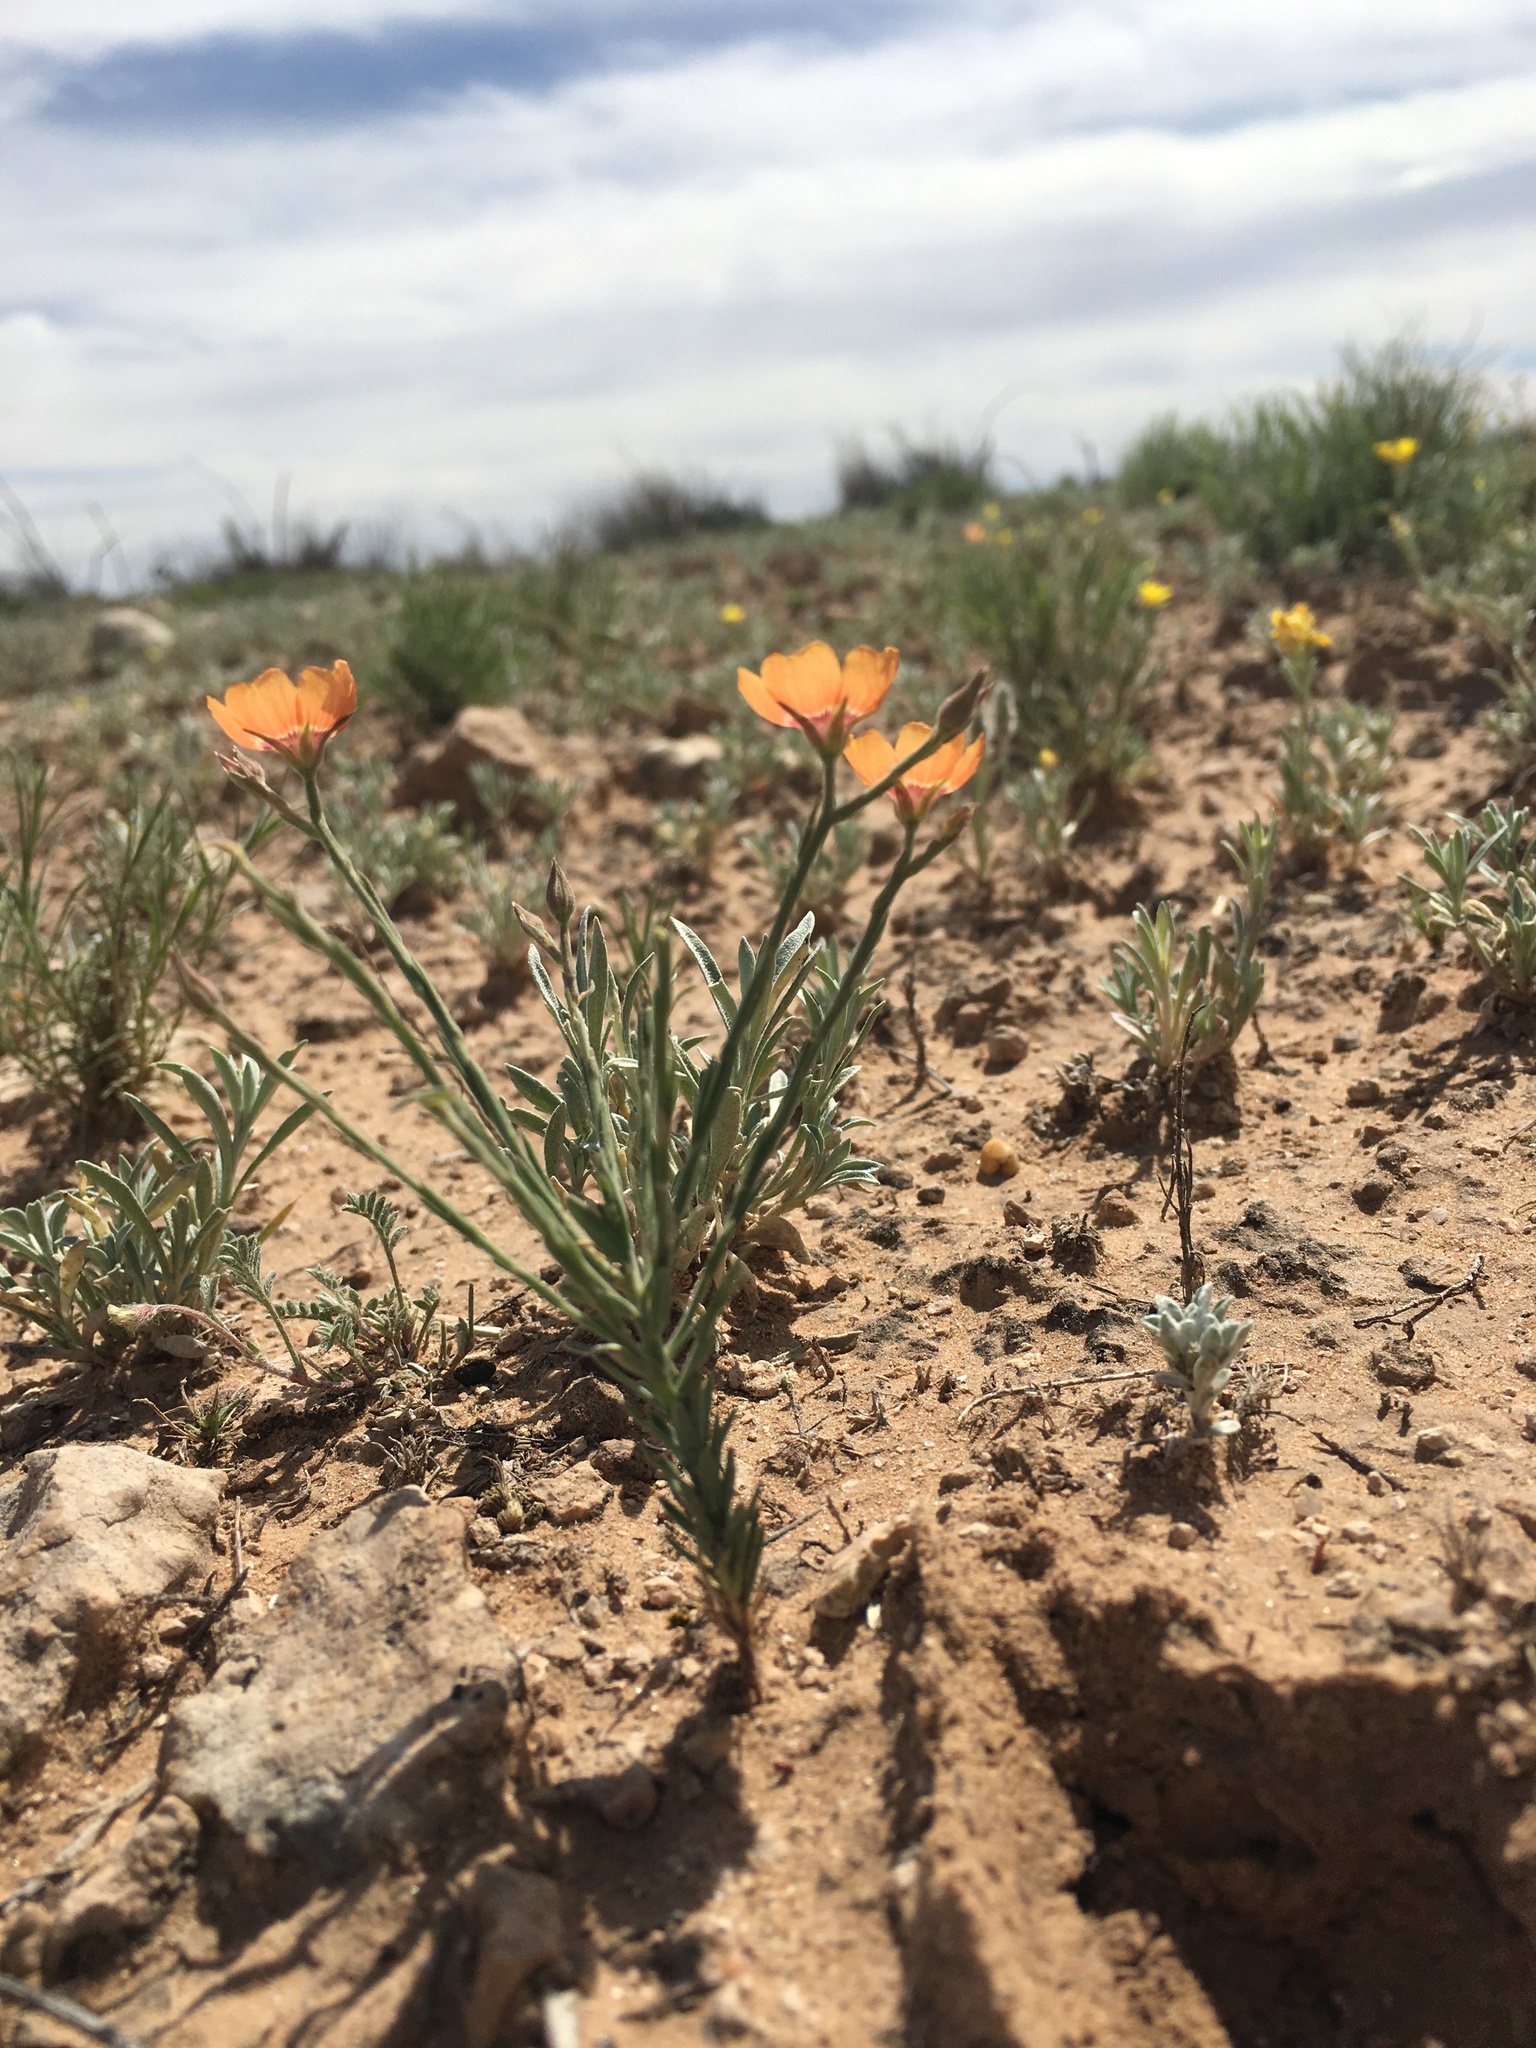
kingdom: Plantae
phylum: Tracheophyta
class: Magnoliopsida
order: Malpighiales
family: Linaceae
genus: Linum
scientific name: Linum puberulum
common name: Plains flax
